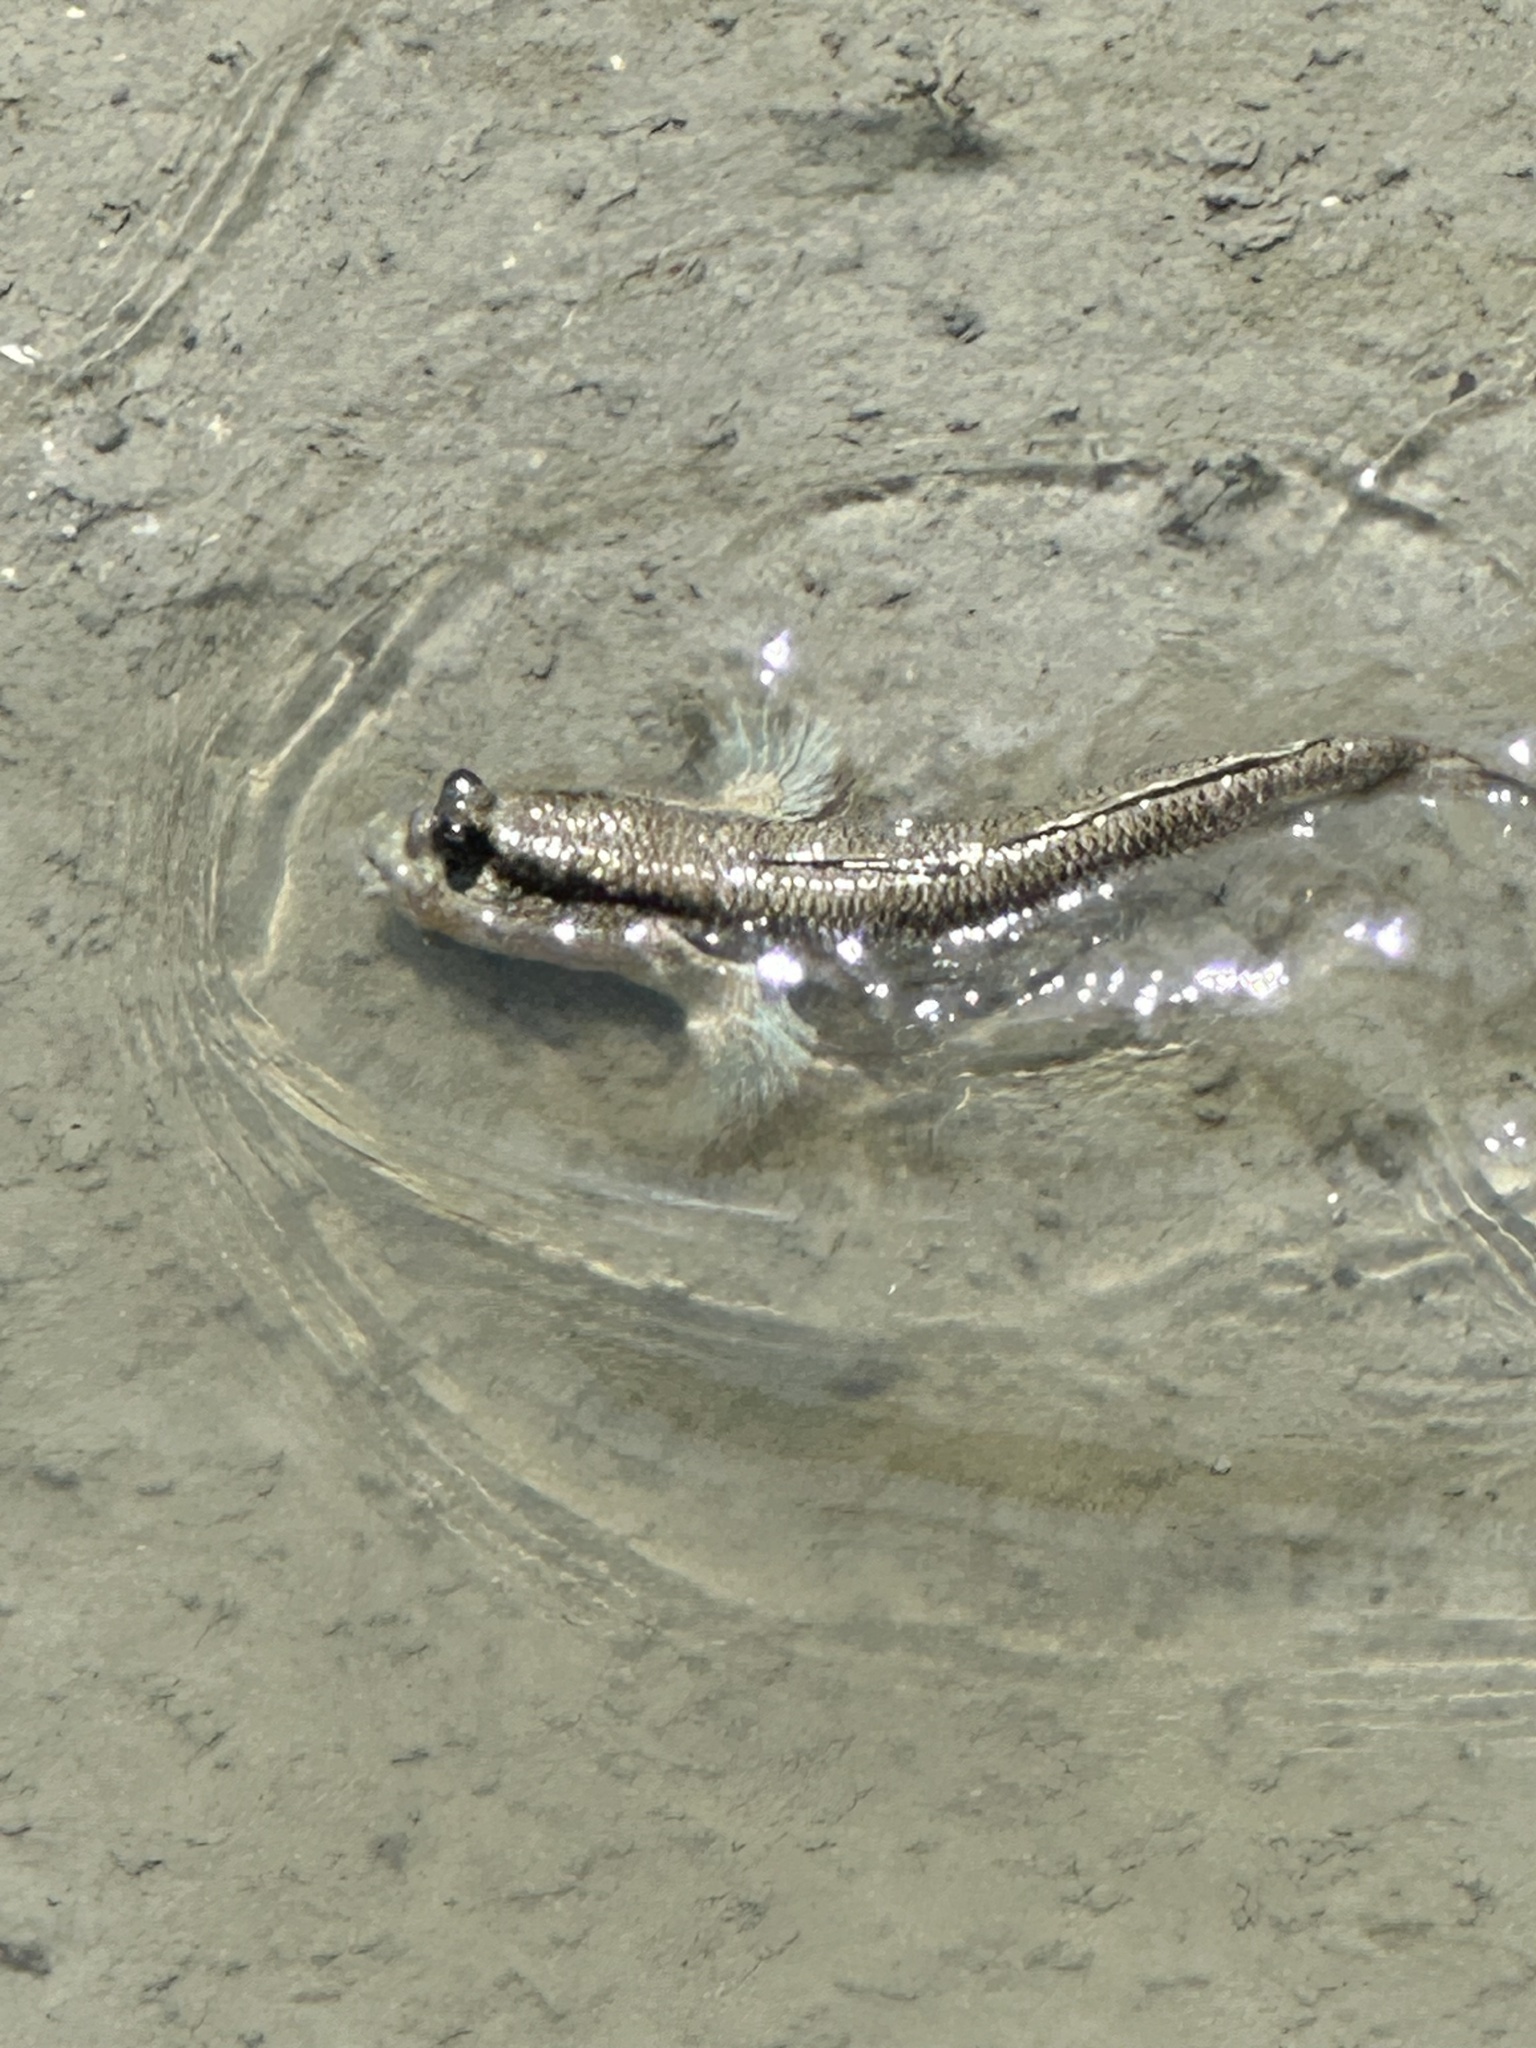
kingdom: Animalia
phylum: Chordata
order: Perciformes
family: Gobiidae
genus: Periophthalmodon
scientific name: Periophthalmodon schlosseri
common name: Giant mudskipper
